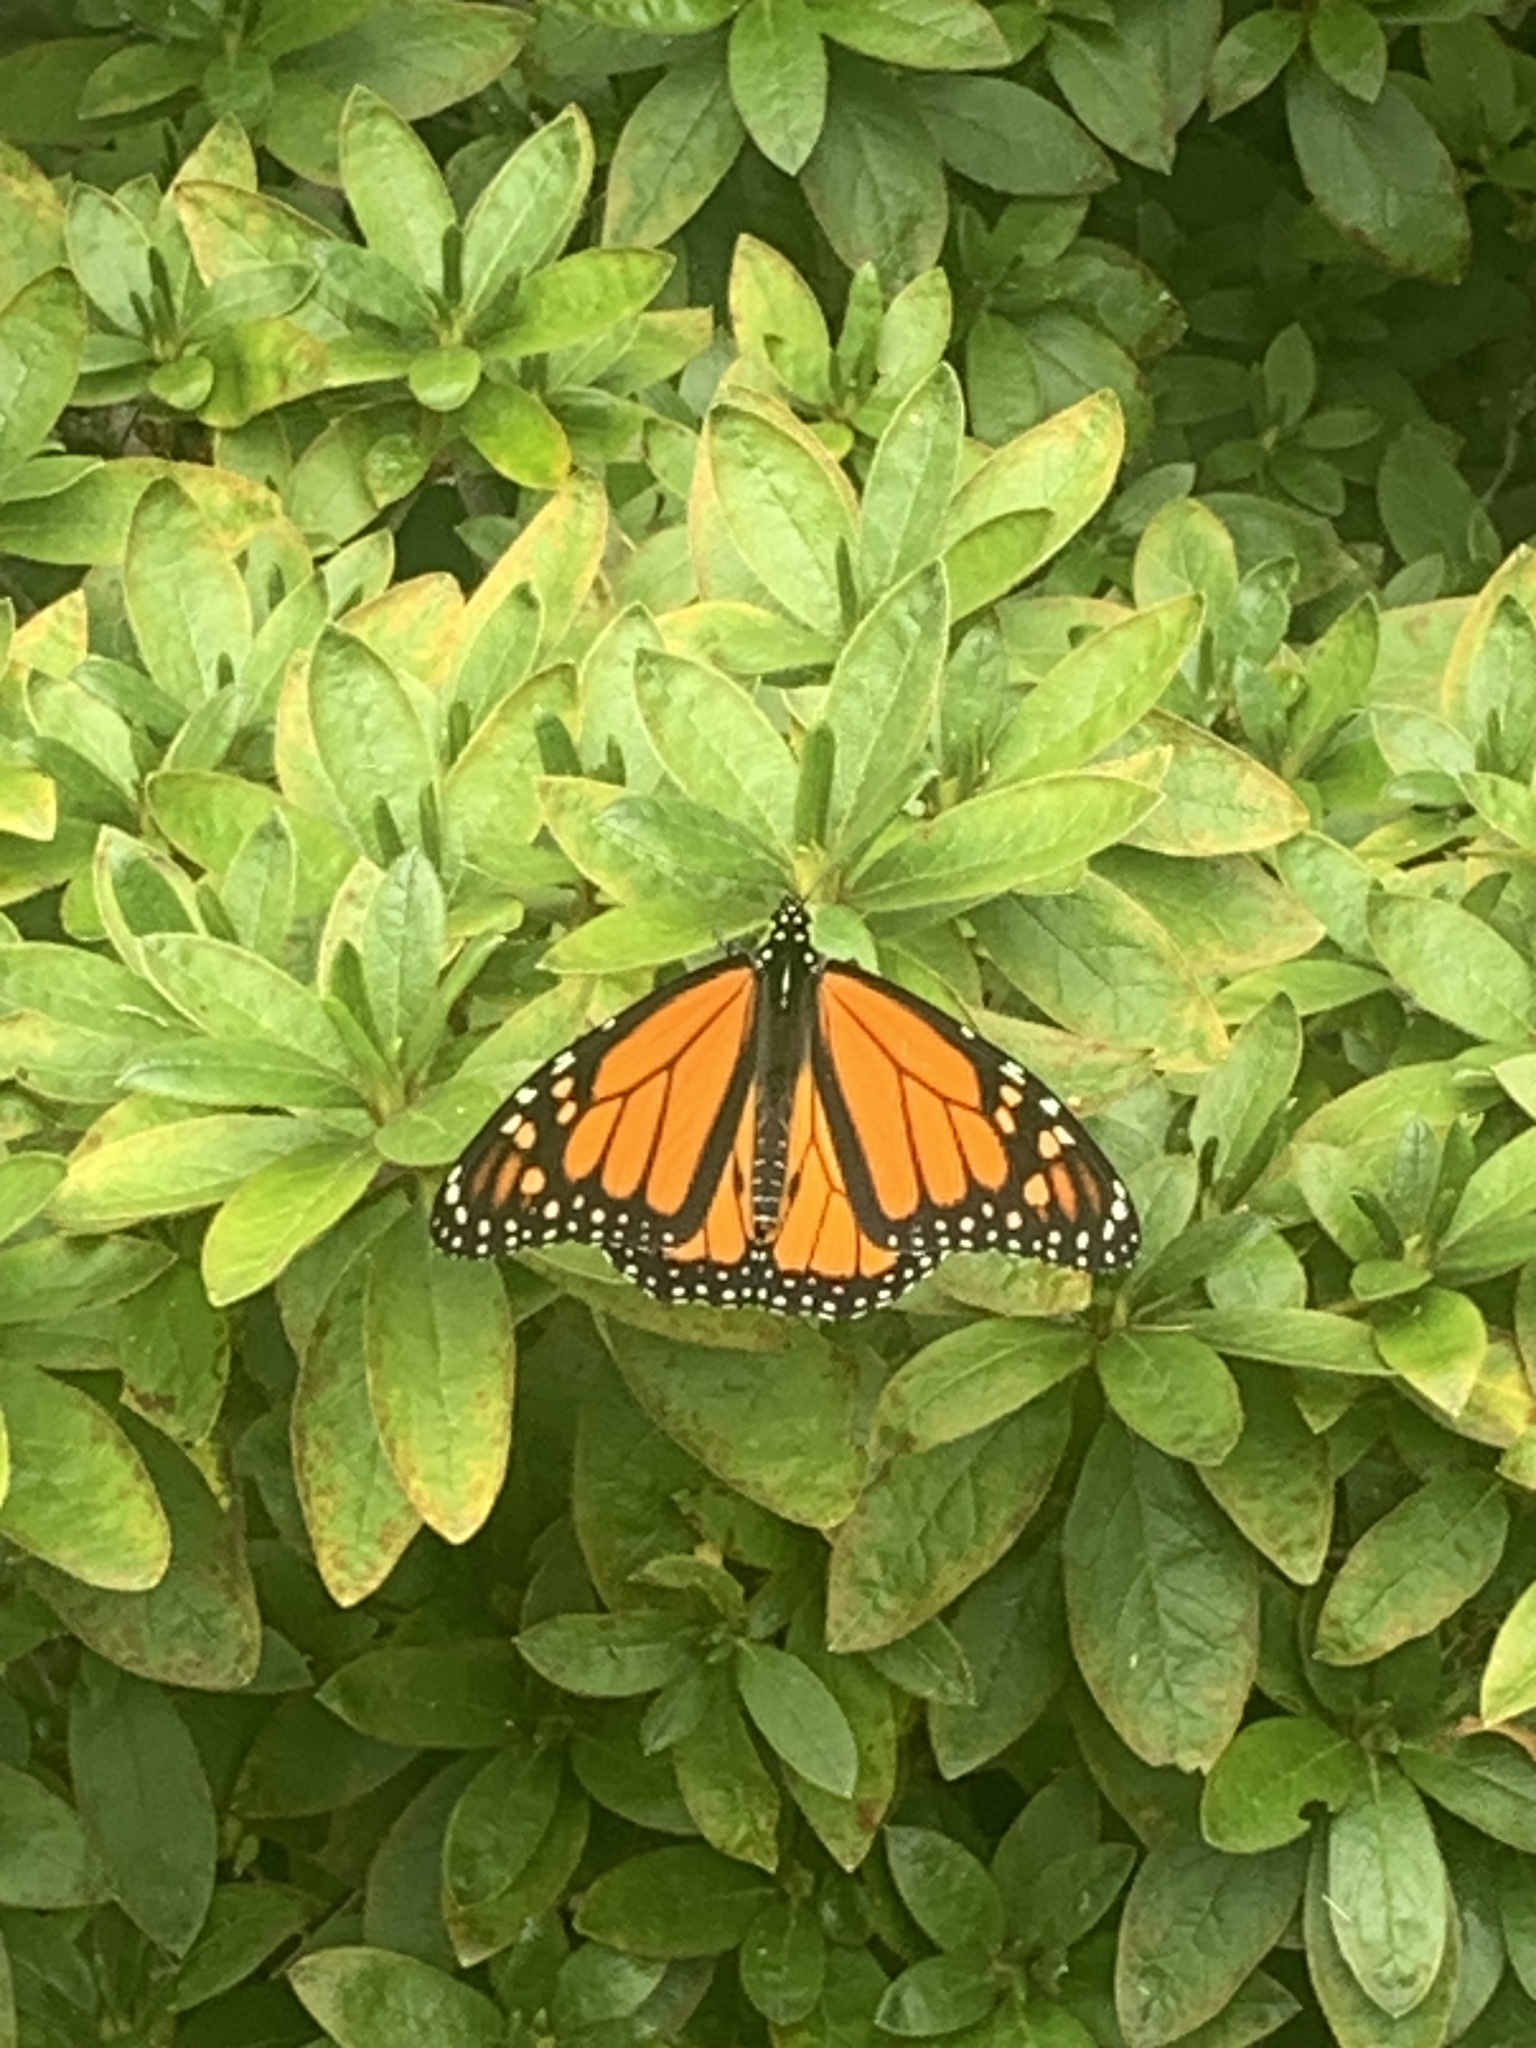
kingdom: Animalia
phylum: Arthropoda
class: Insecta
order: Lepidoptera
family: Nymphalidae
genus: Danaus
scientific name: Danaus plexippus
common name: Monarch
